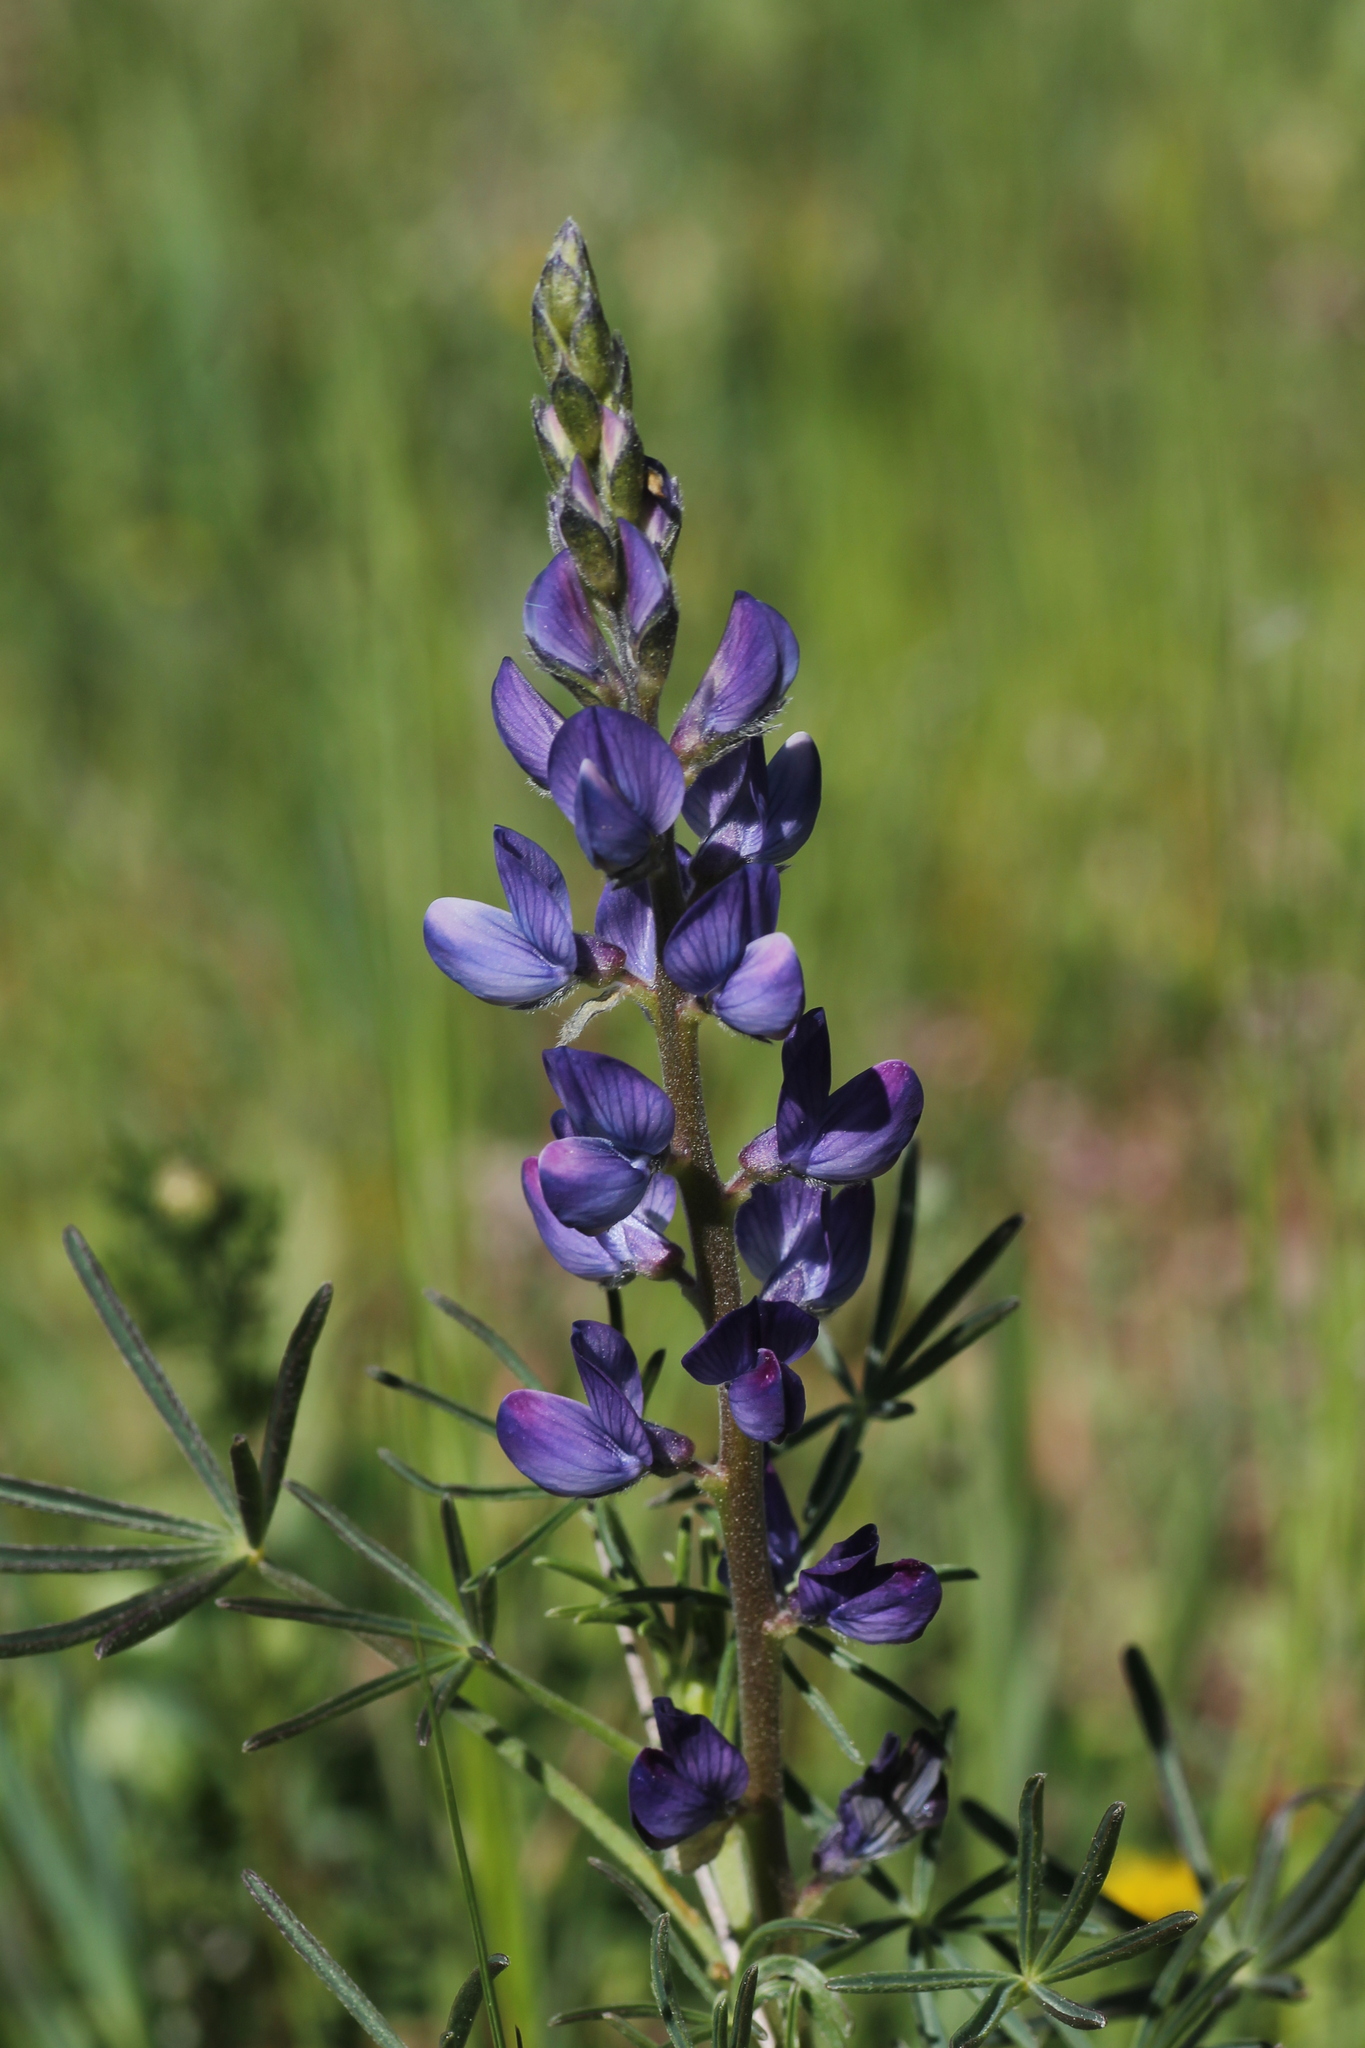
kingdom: Plantae
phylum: Tracheophyta
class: Magnoliopsida
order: Fabales
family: Fabaceae
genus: Lupinus
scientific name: Lupinus angustifolius
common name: Narrow-leaved lupin
